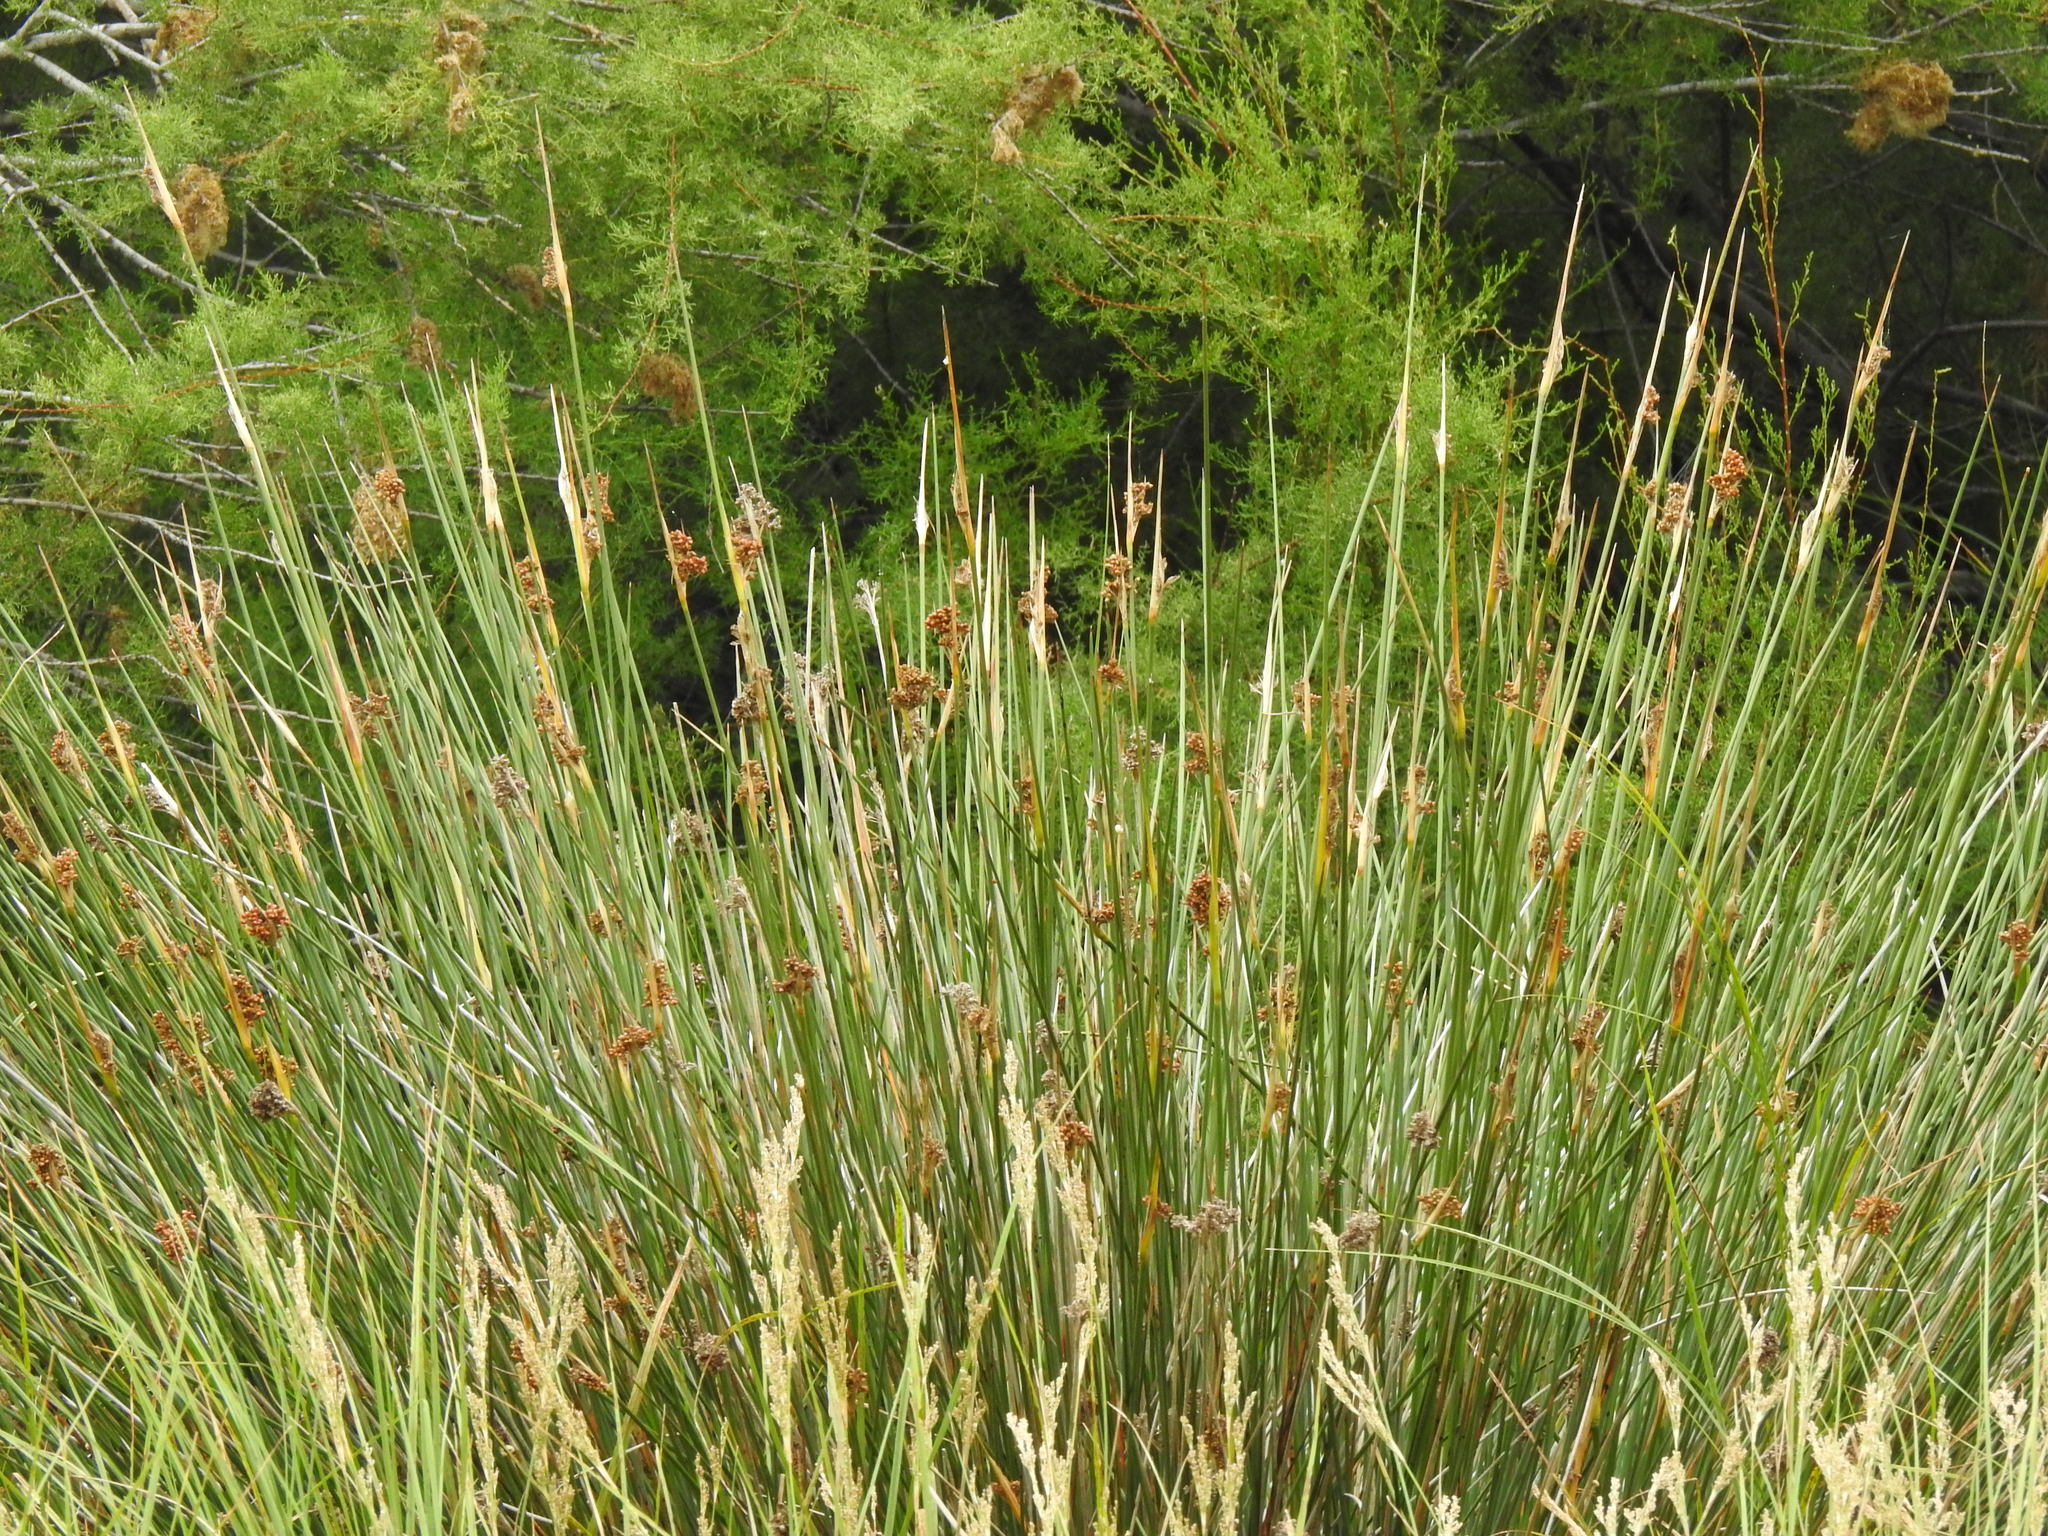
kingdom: Plantae
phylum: Tracheophyta
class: Liliopsida
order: Poales
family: Juncaceae
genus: Juncus
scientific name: Juncus acutus
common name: Sharp rush
